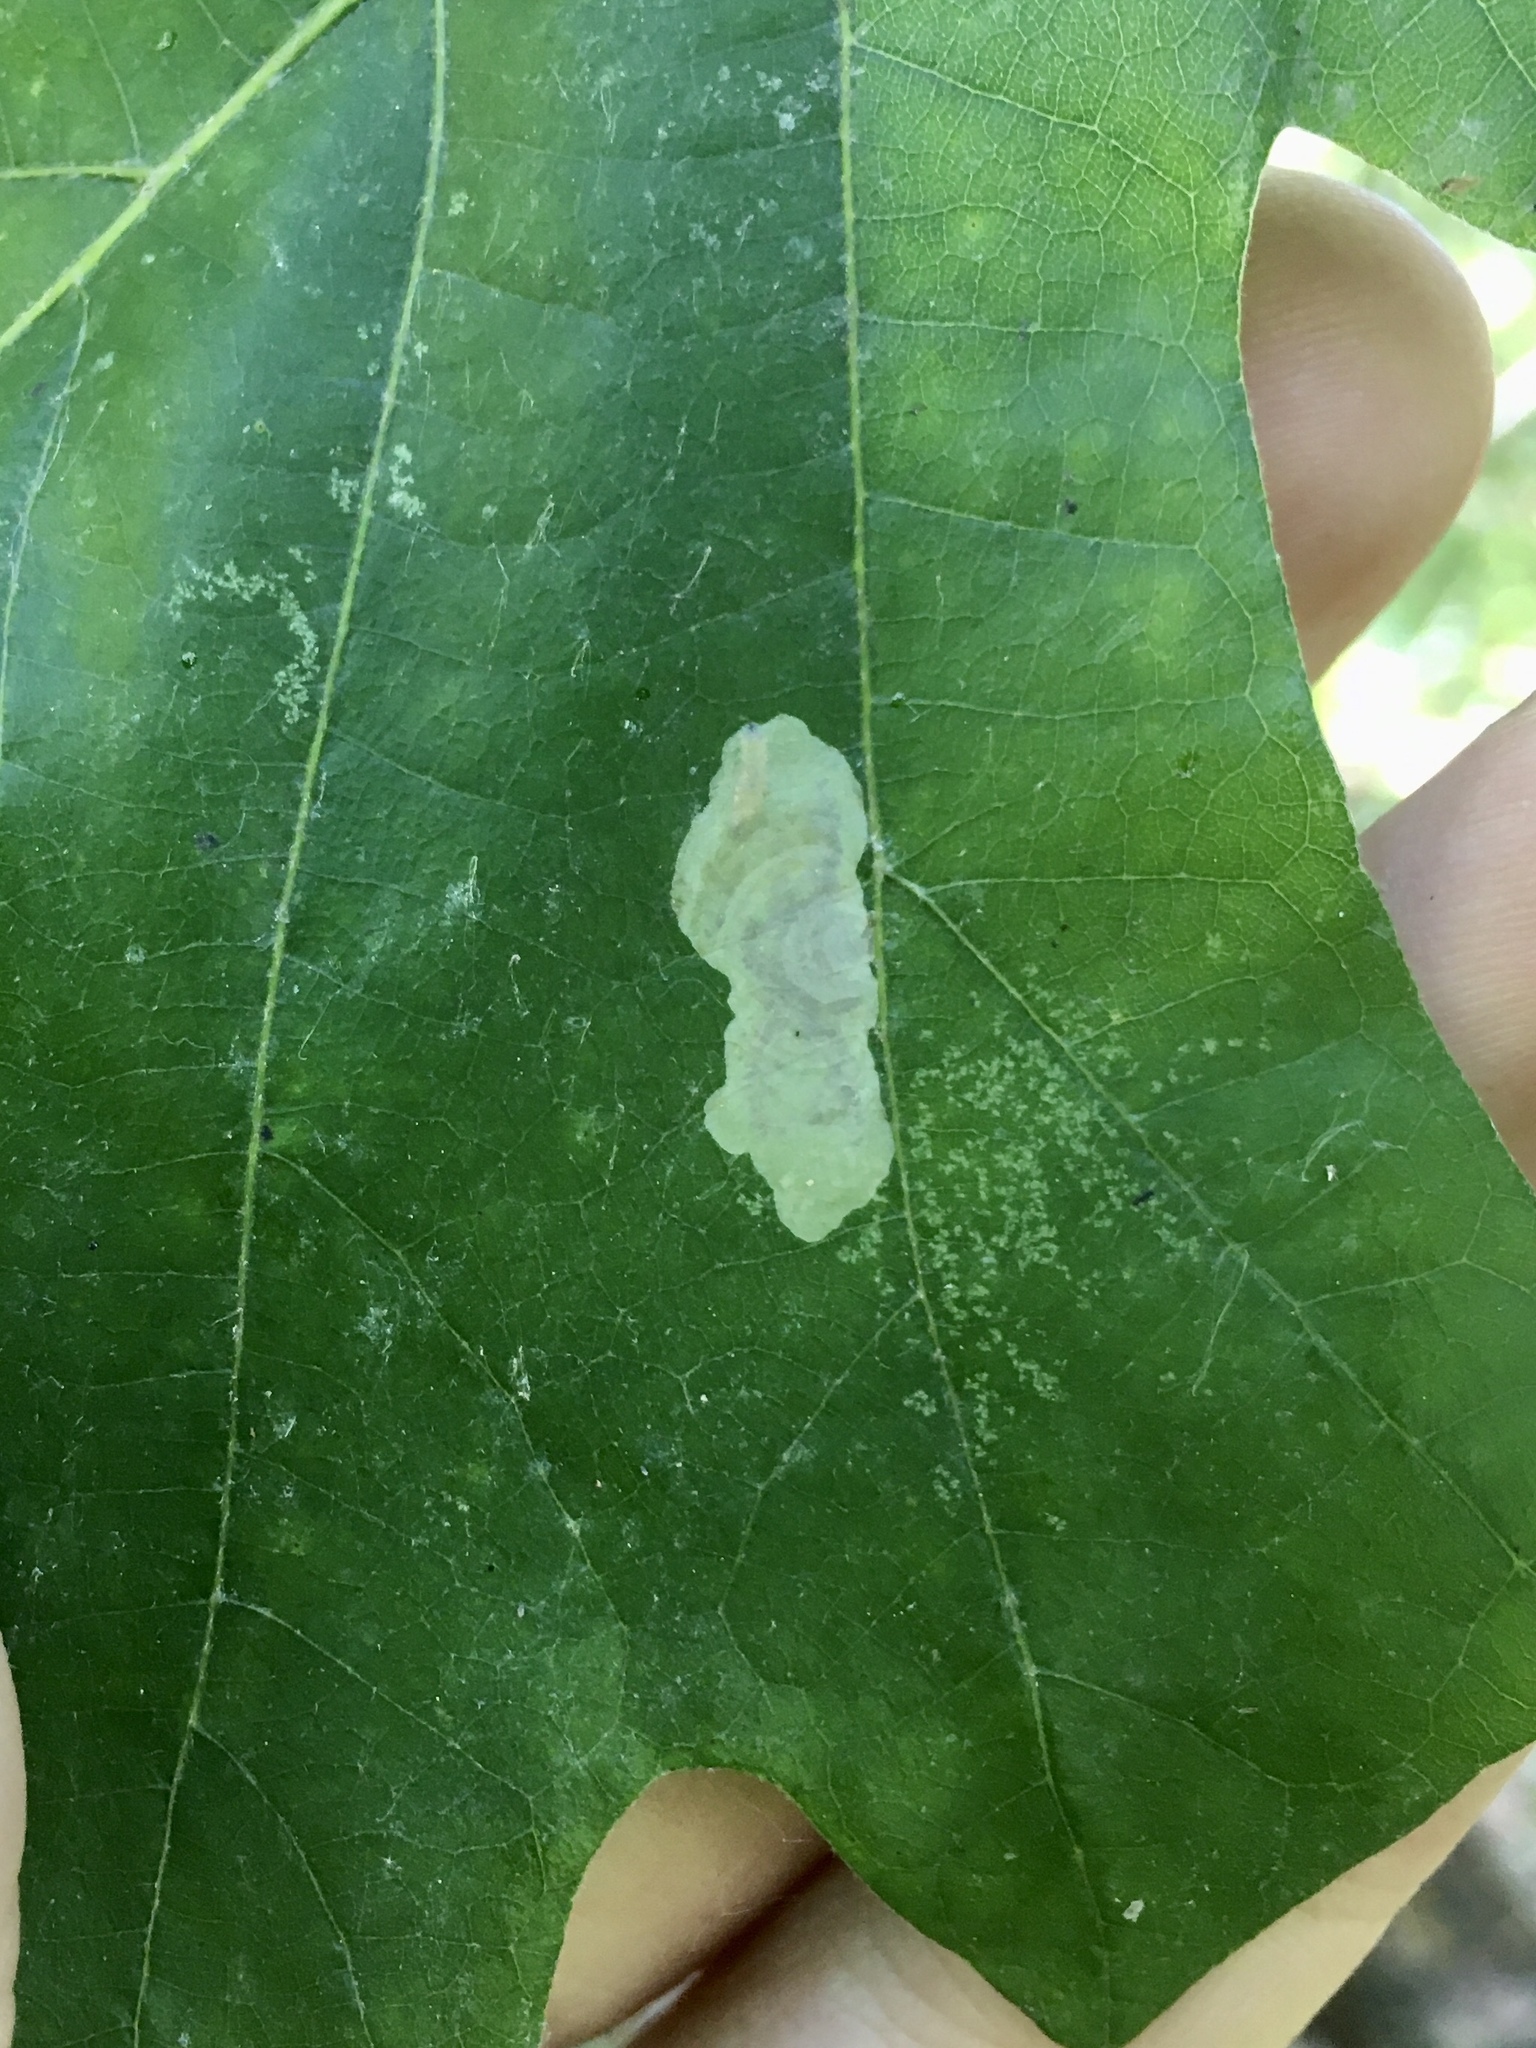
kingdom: Animalia
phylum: Arthropoda
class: Insecta
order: Lepidoptera
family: Gracillariidae
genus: Cameraria
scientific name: Cameraria
